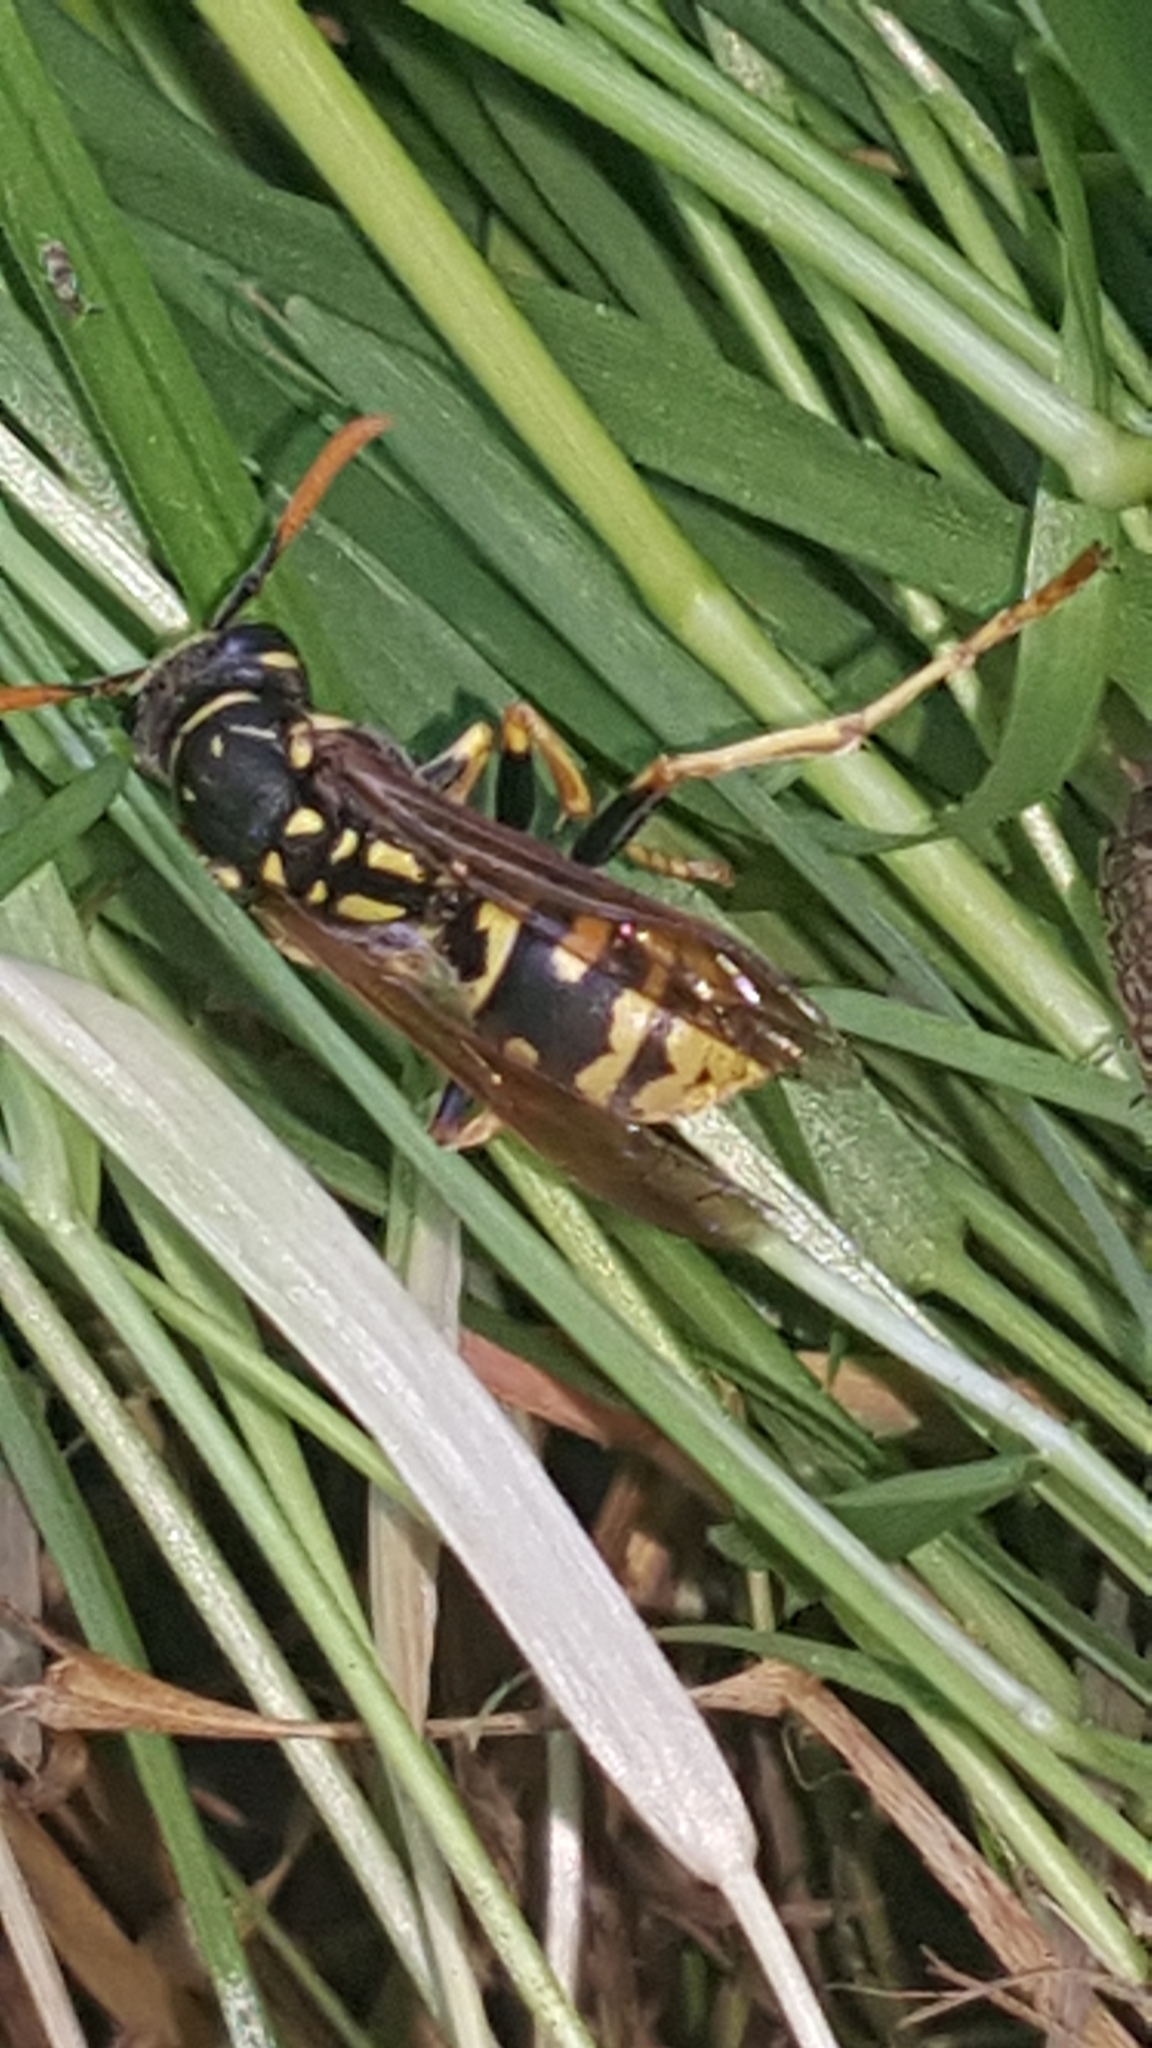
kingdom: Animalia
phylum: Arthropoda
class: Insecta
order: Hymenoptera
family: Eumenidae
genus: Polistes
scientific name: Polistes dominula
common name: Paper wasp
